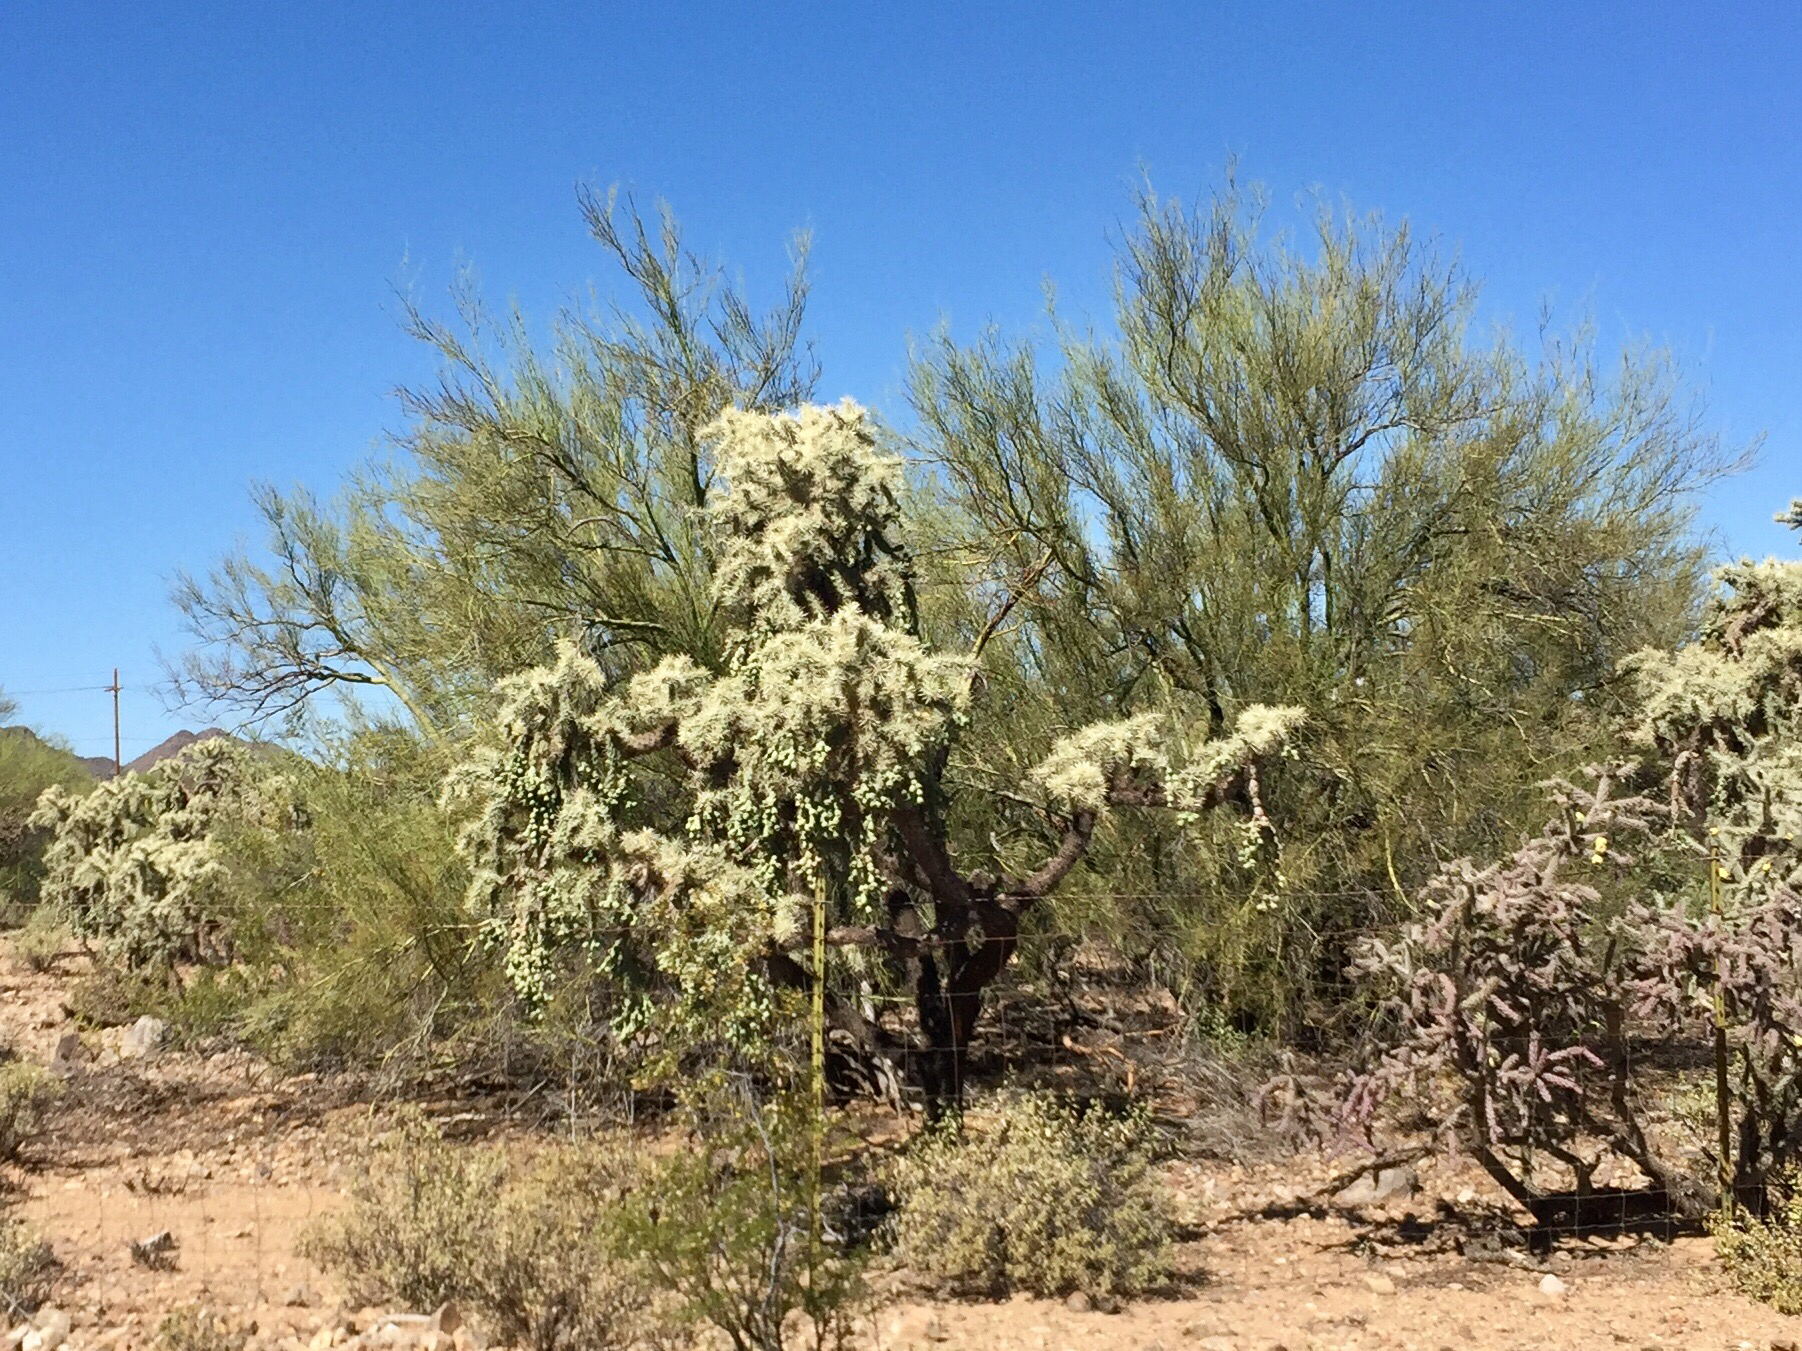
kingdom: Plantae
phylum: Tracheophyta
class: Magnoliopsida
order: Caryophyllales
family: Cactaceae
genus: Cylindropuntia
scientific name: Cylindropuntia fulgida
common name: Jumping cholla
